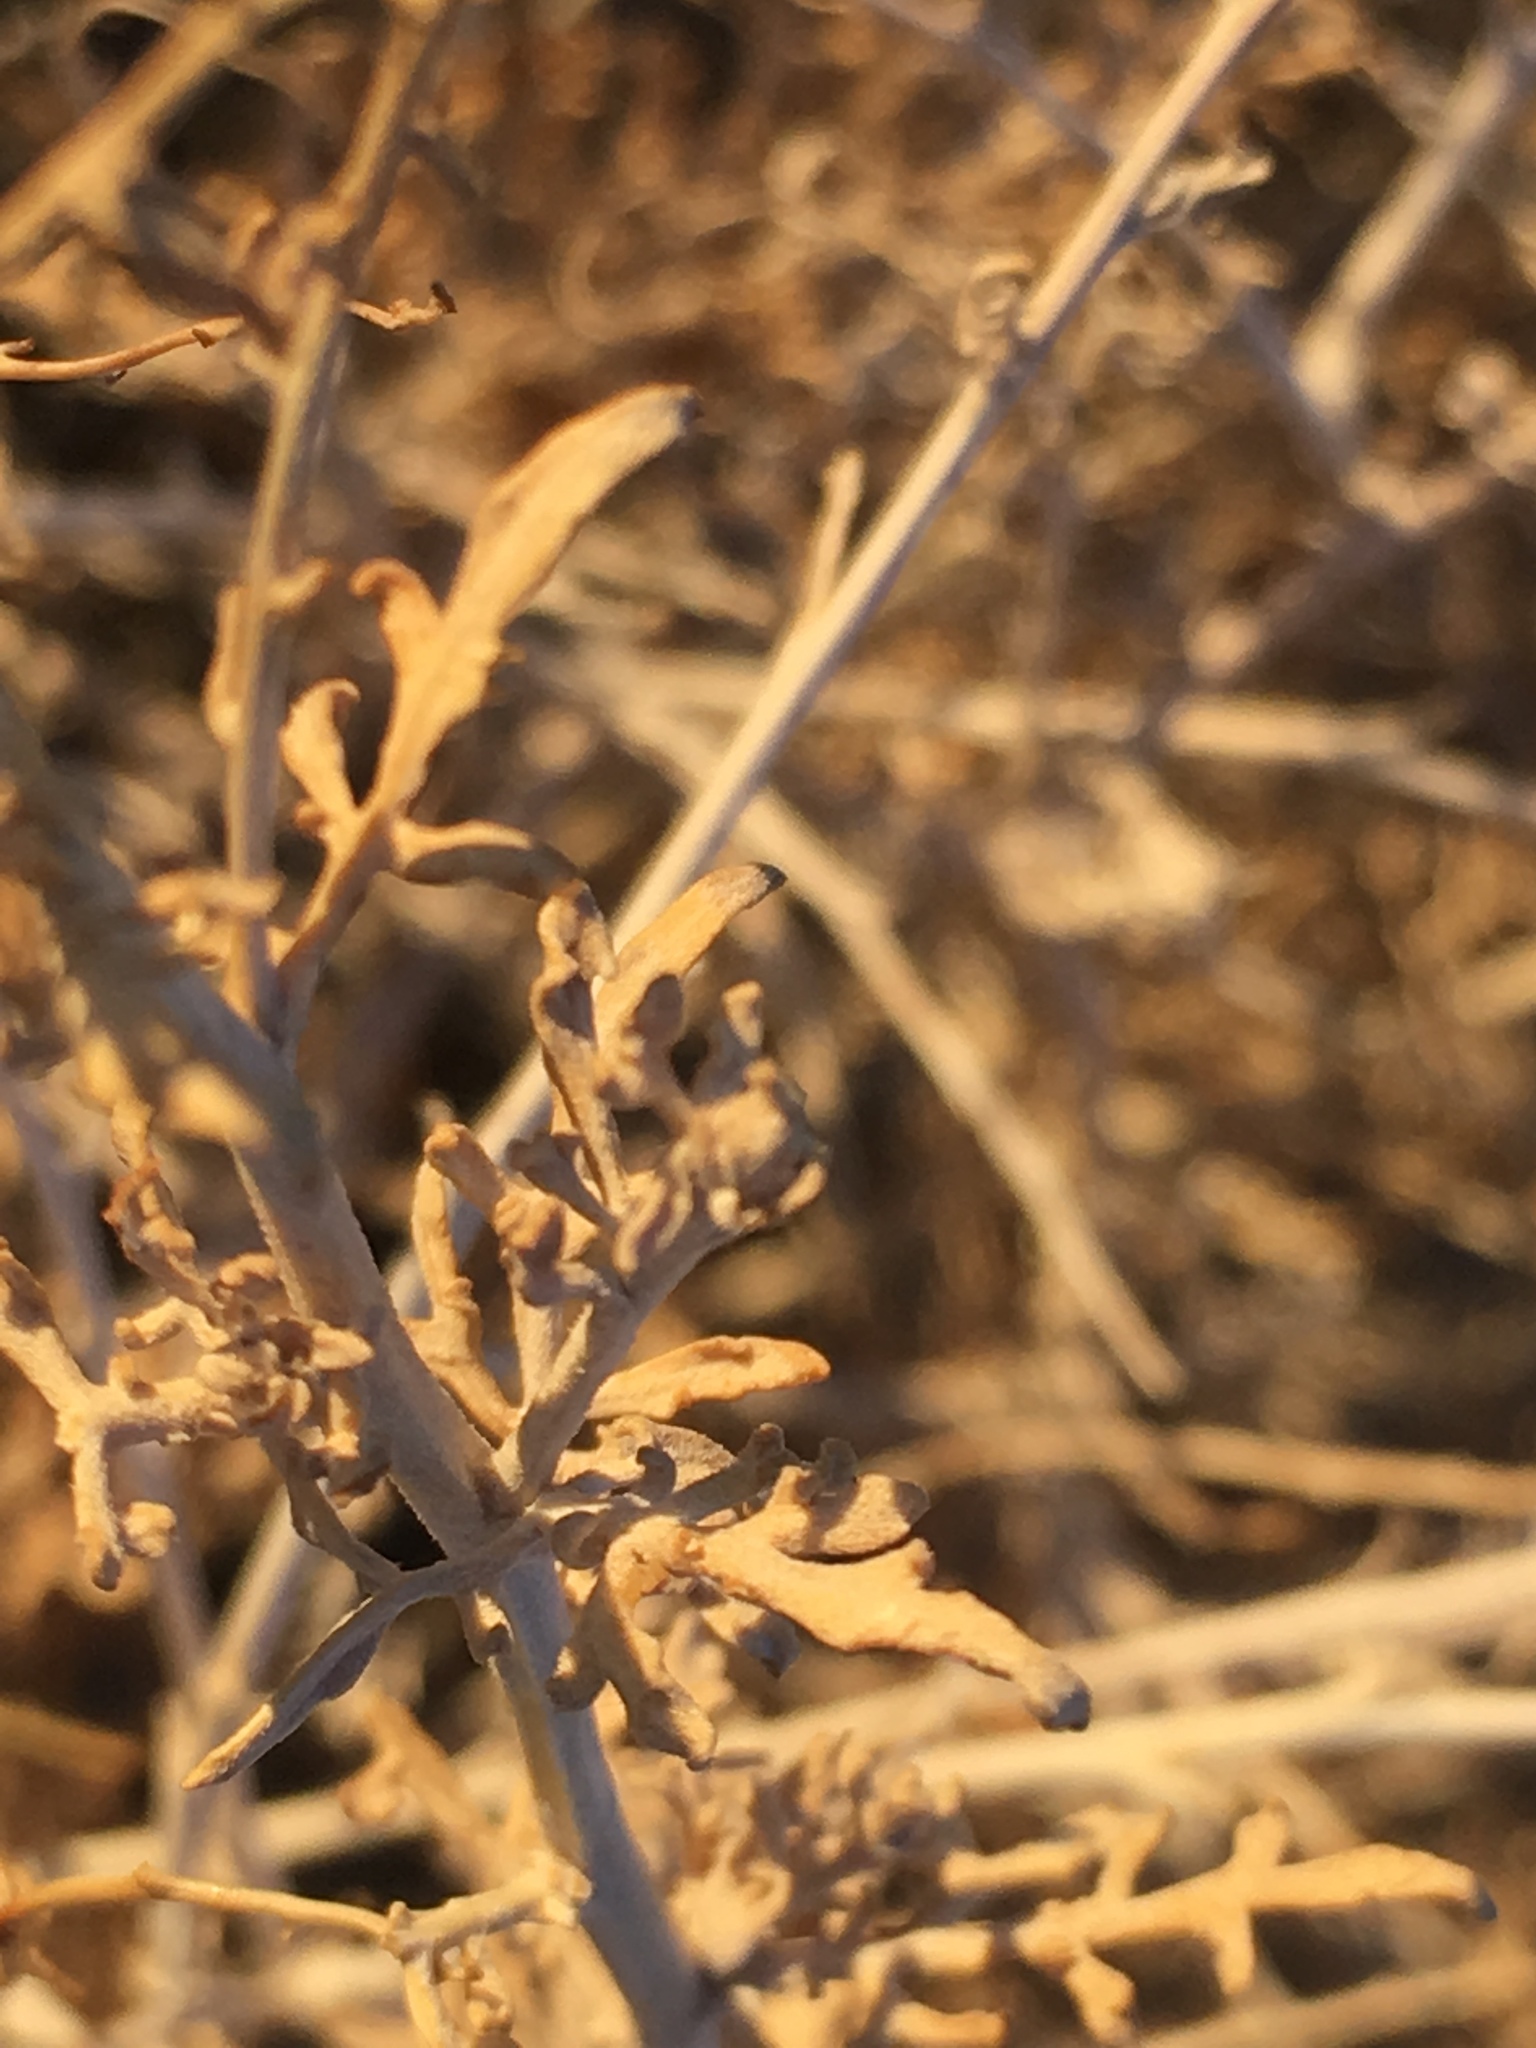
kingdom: Plantae
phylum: Tracheophyta
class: Magnoliopsida
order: Asterales
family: Asteraceae
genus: Ambrosia
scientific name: Ambrosia dumosa
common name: Bur-sage
